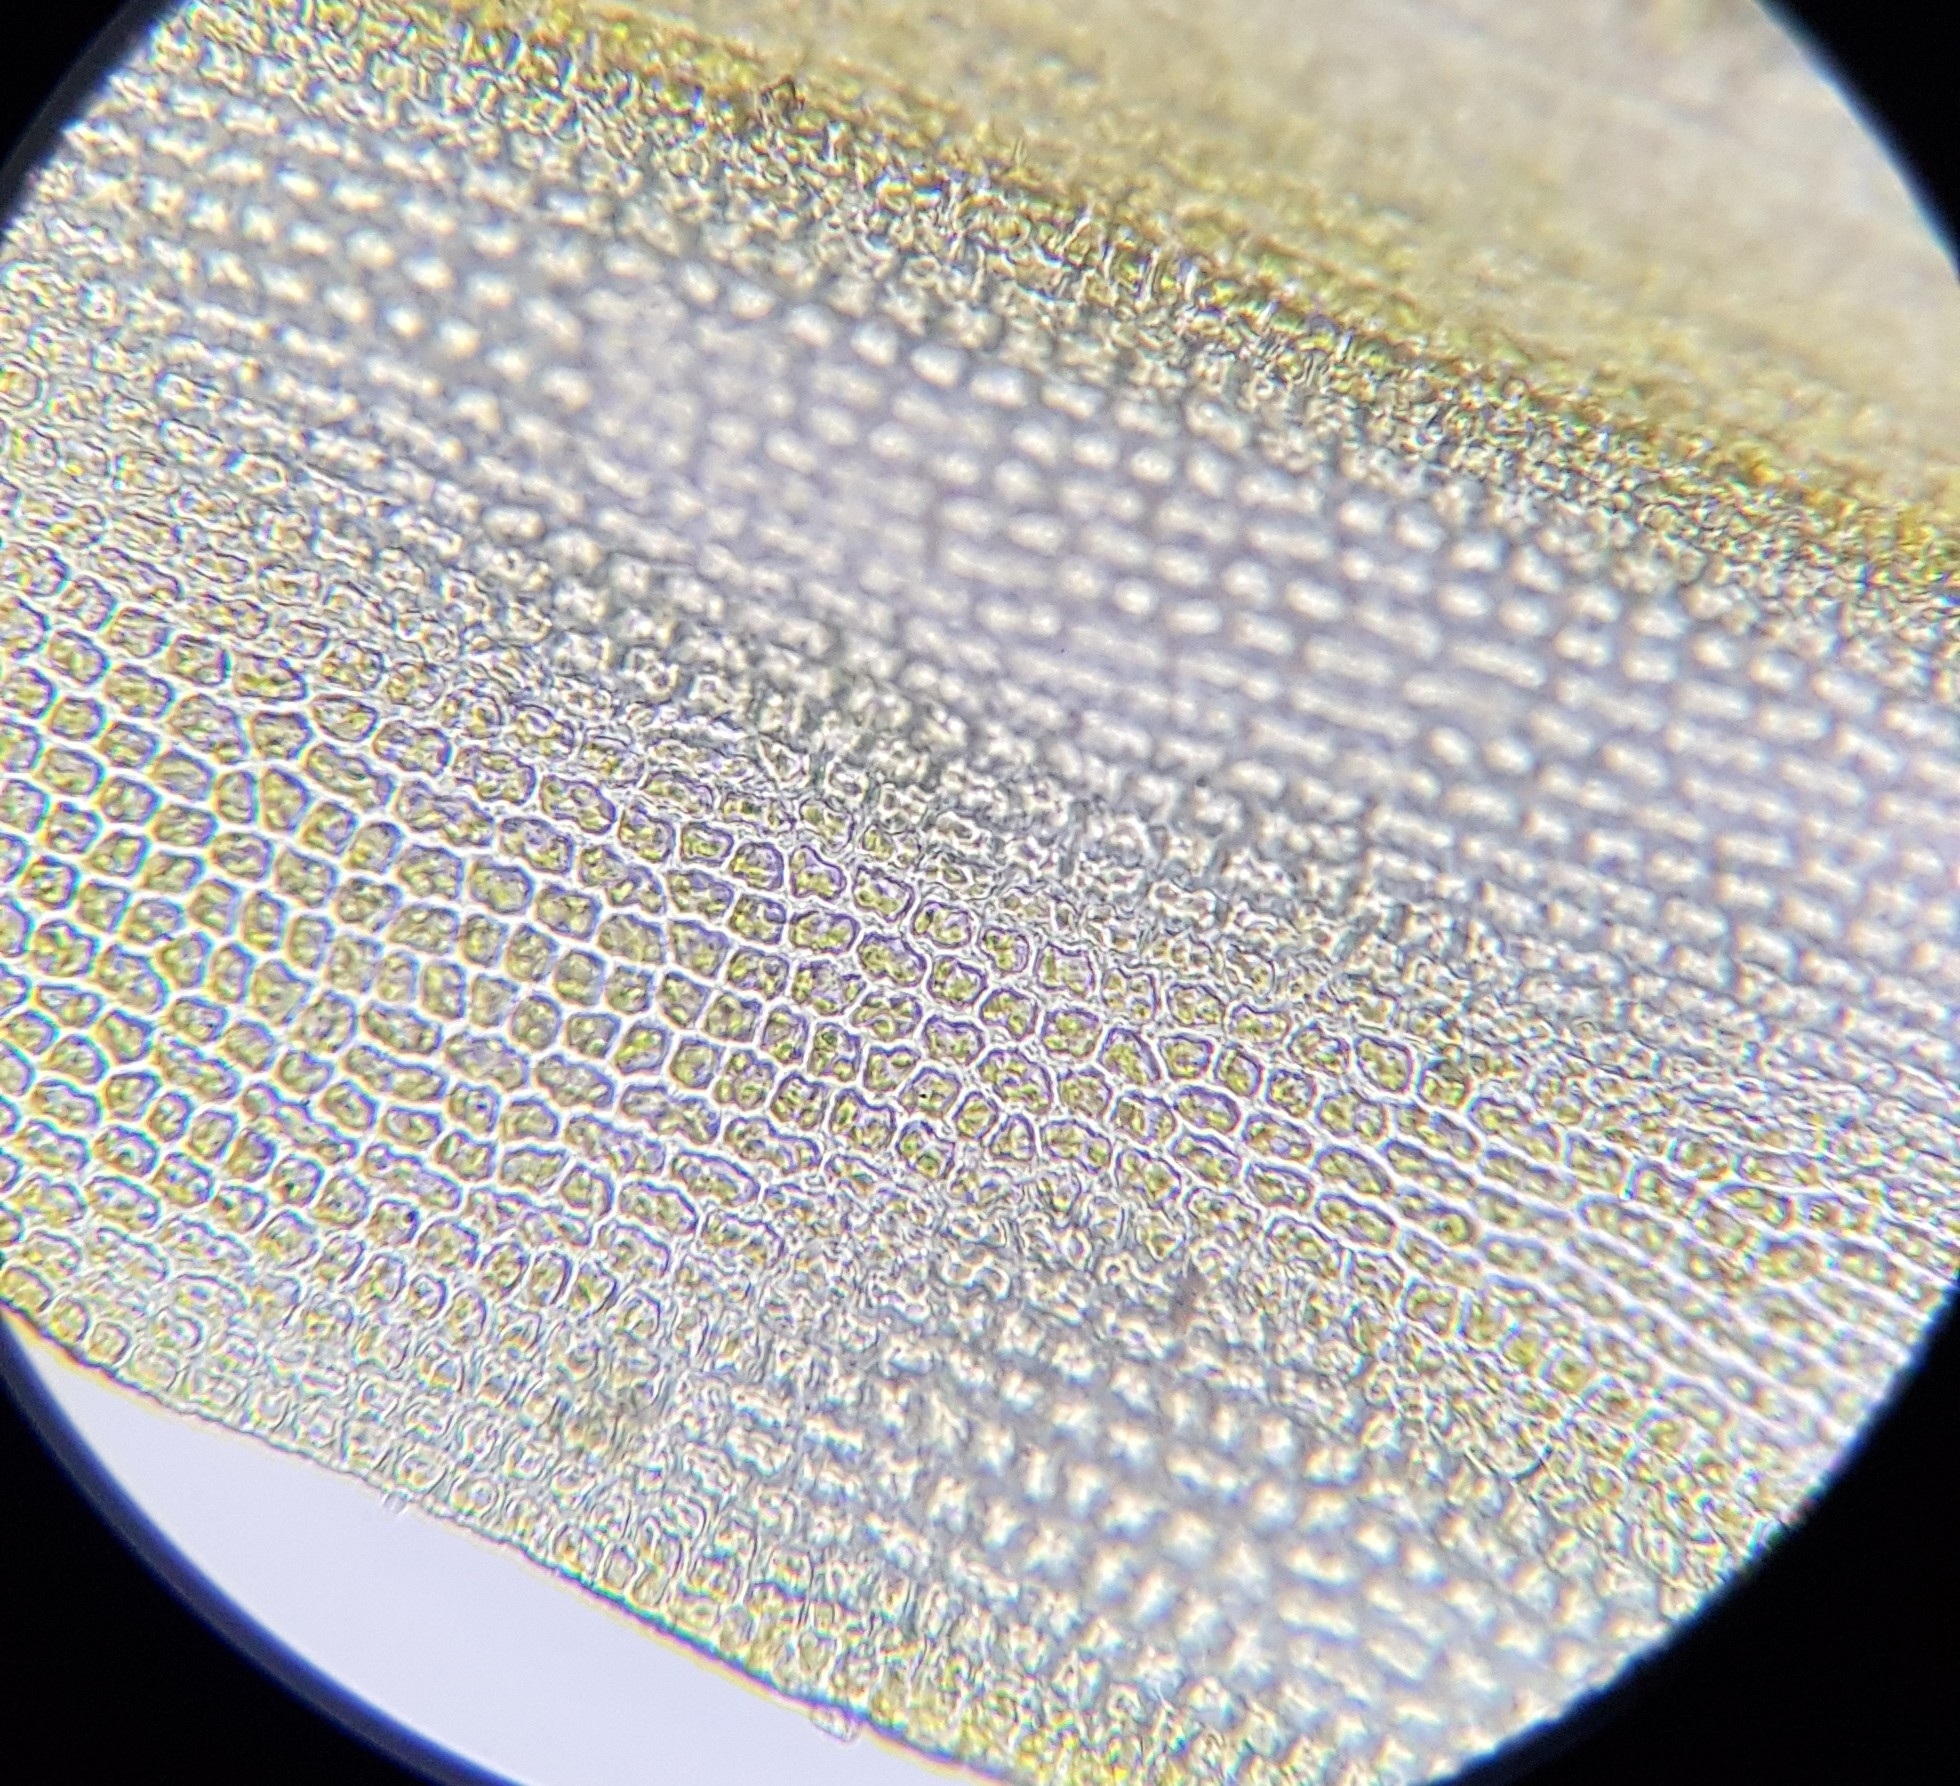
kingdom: Plantae
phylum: Bryophyta
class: Bryopsida
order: Grimmiales
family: Grimmiaceae
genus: Codriophorus
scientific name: Codriophorus acicularis
